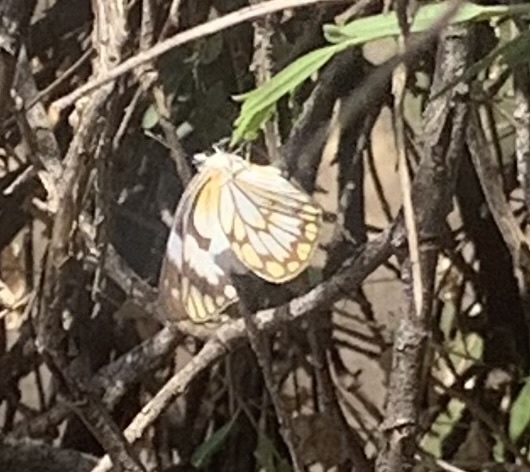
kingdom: Animalia
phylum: Arthropoda
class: Insecta
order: Lepidoptera
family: Pieridae
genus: Belenois
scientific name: Belenois aurota
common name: Brown-veined white
